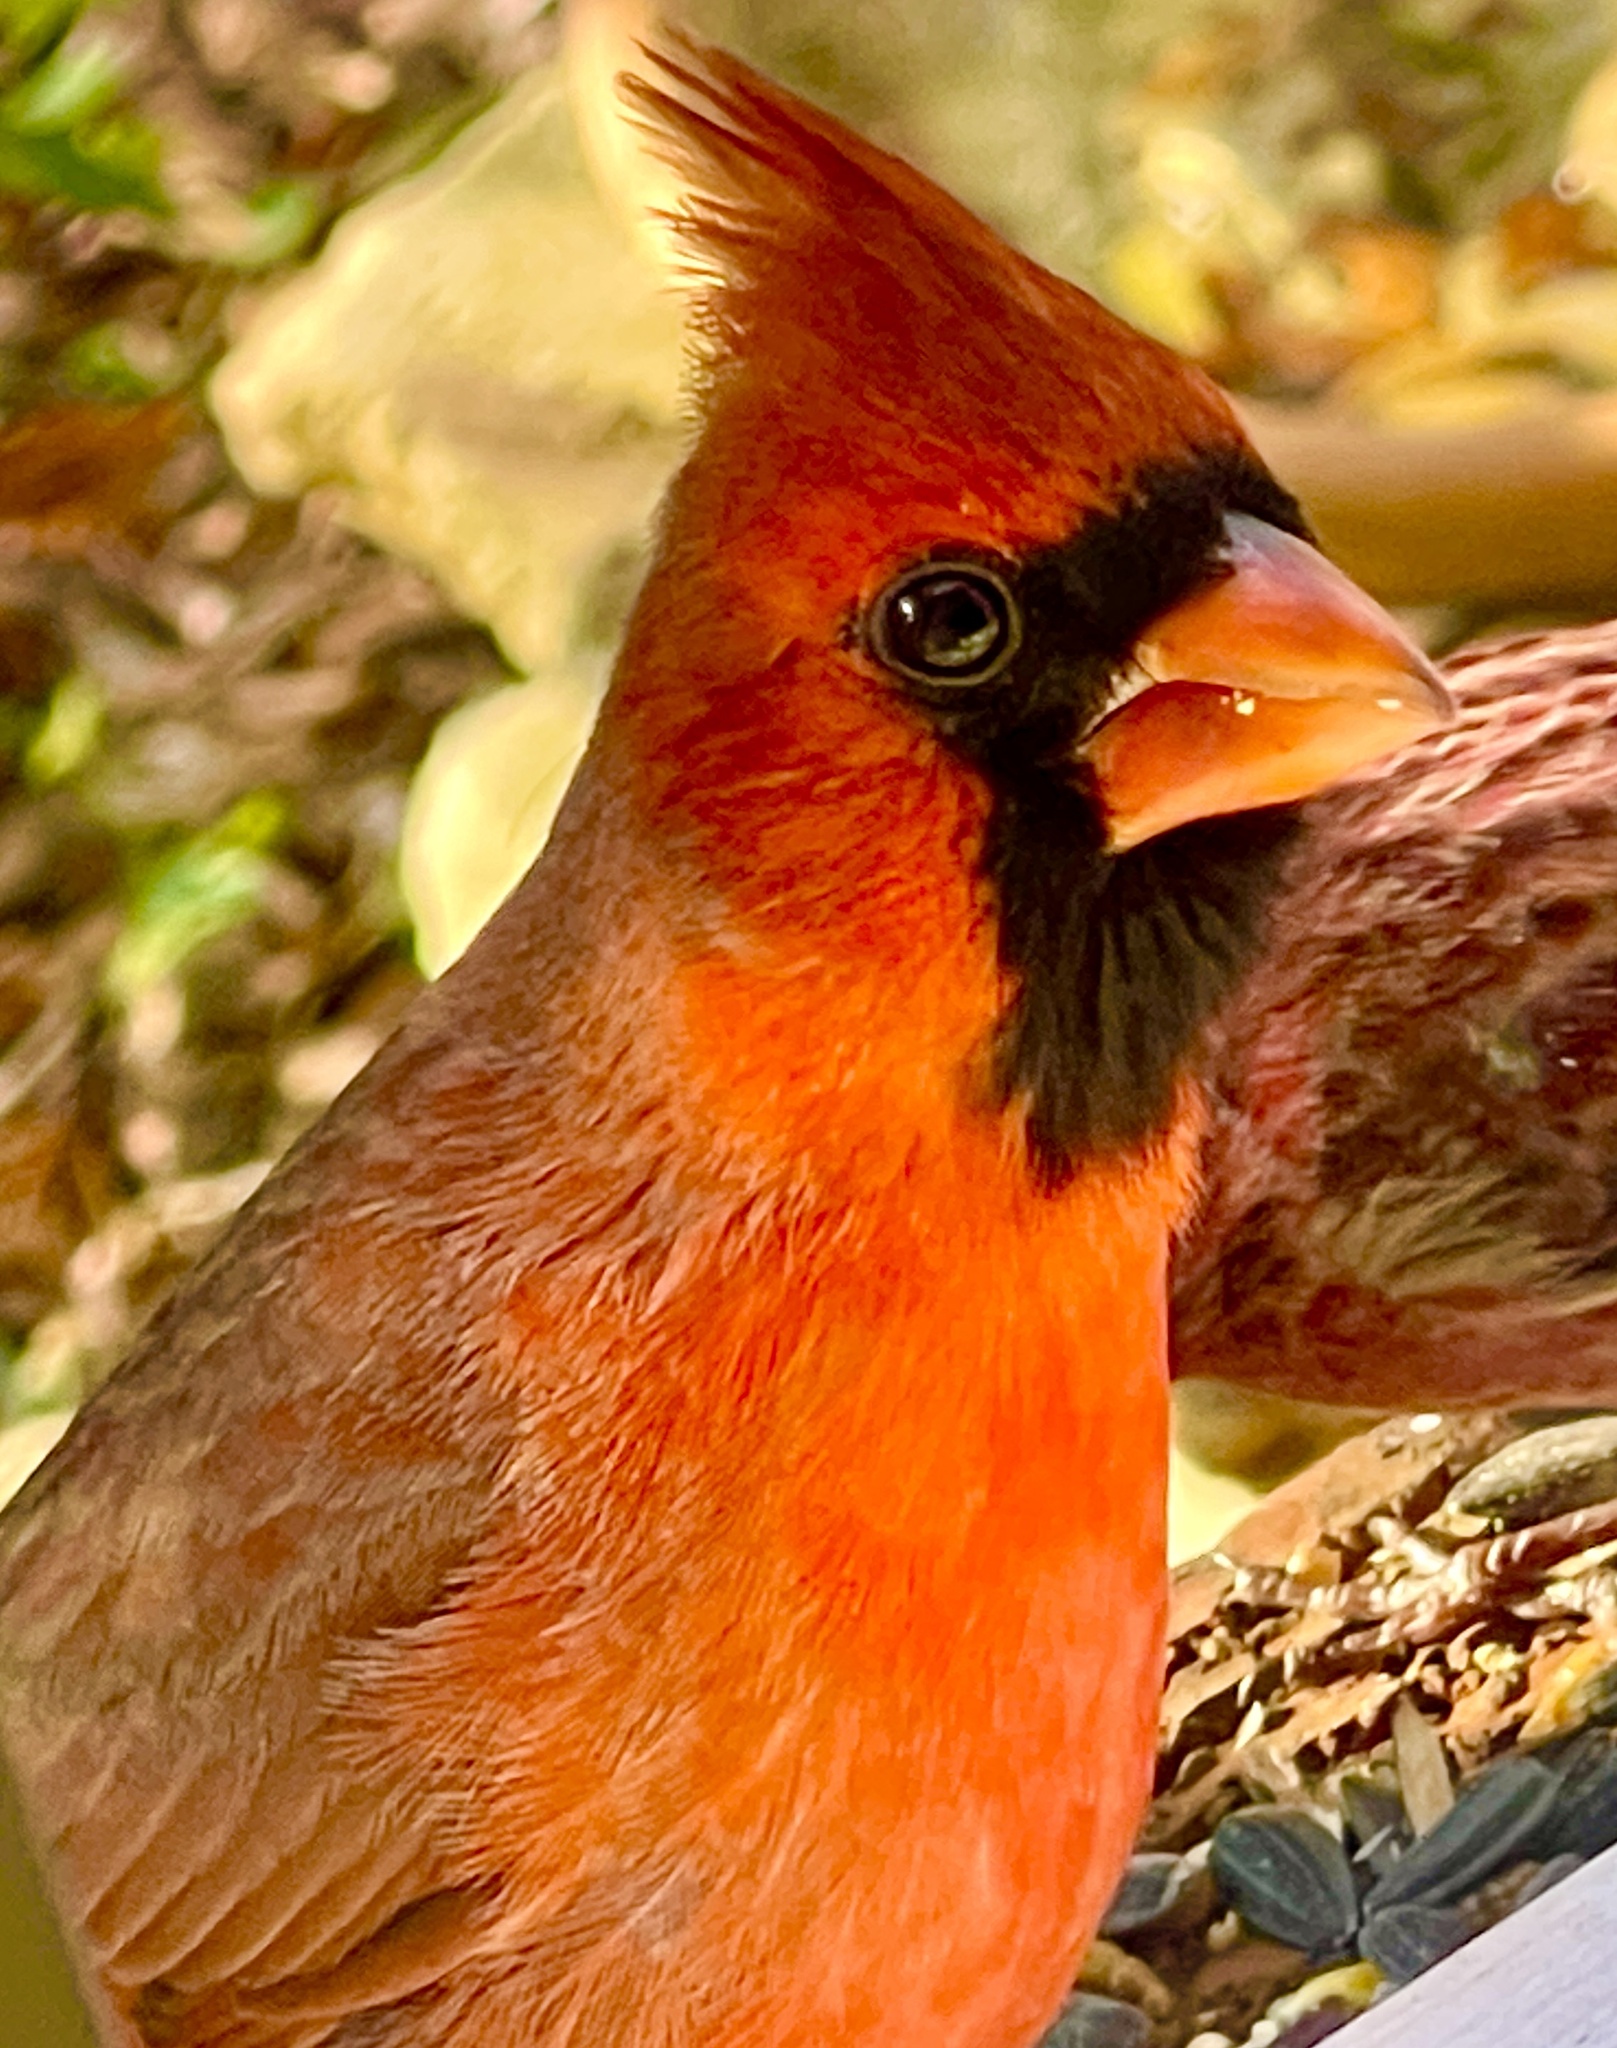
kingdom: Animalia
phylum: Chordata
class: Aves
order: Passeriformes
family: Cardinalidae
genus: Cardinalis
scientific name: Cardinalis cardinalis
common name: Northern cardinal
